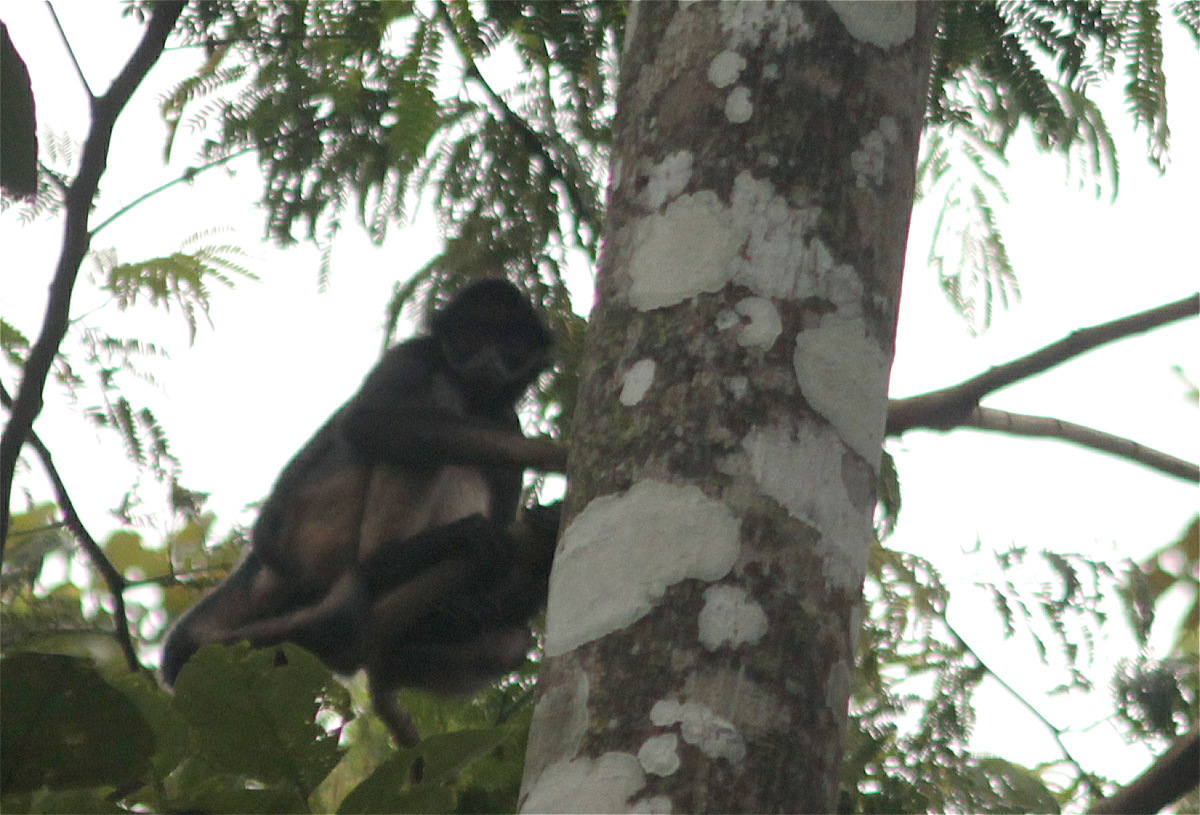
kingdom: Animalia
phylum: Chordata
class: Mammalia
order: Primates
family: Atelidae
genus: Ateles
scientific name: Ateles belzebuth
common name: White-fronted spider monkey
